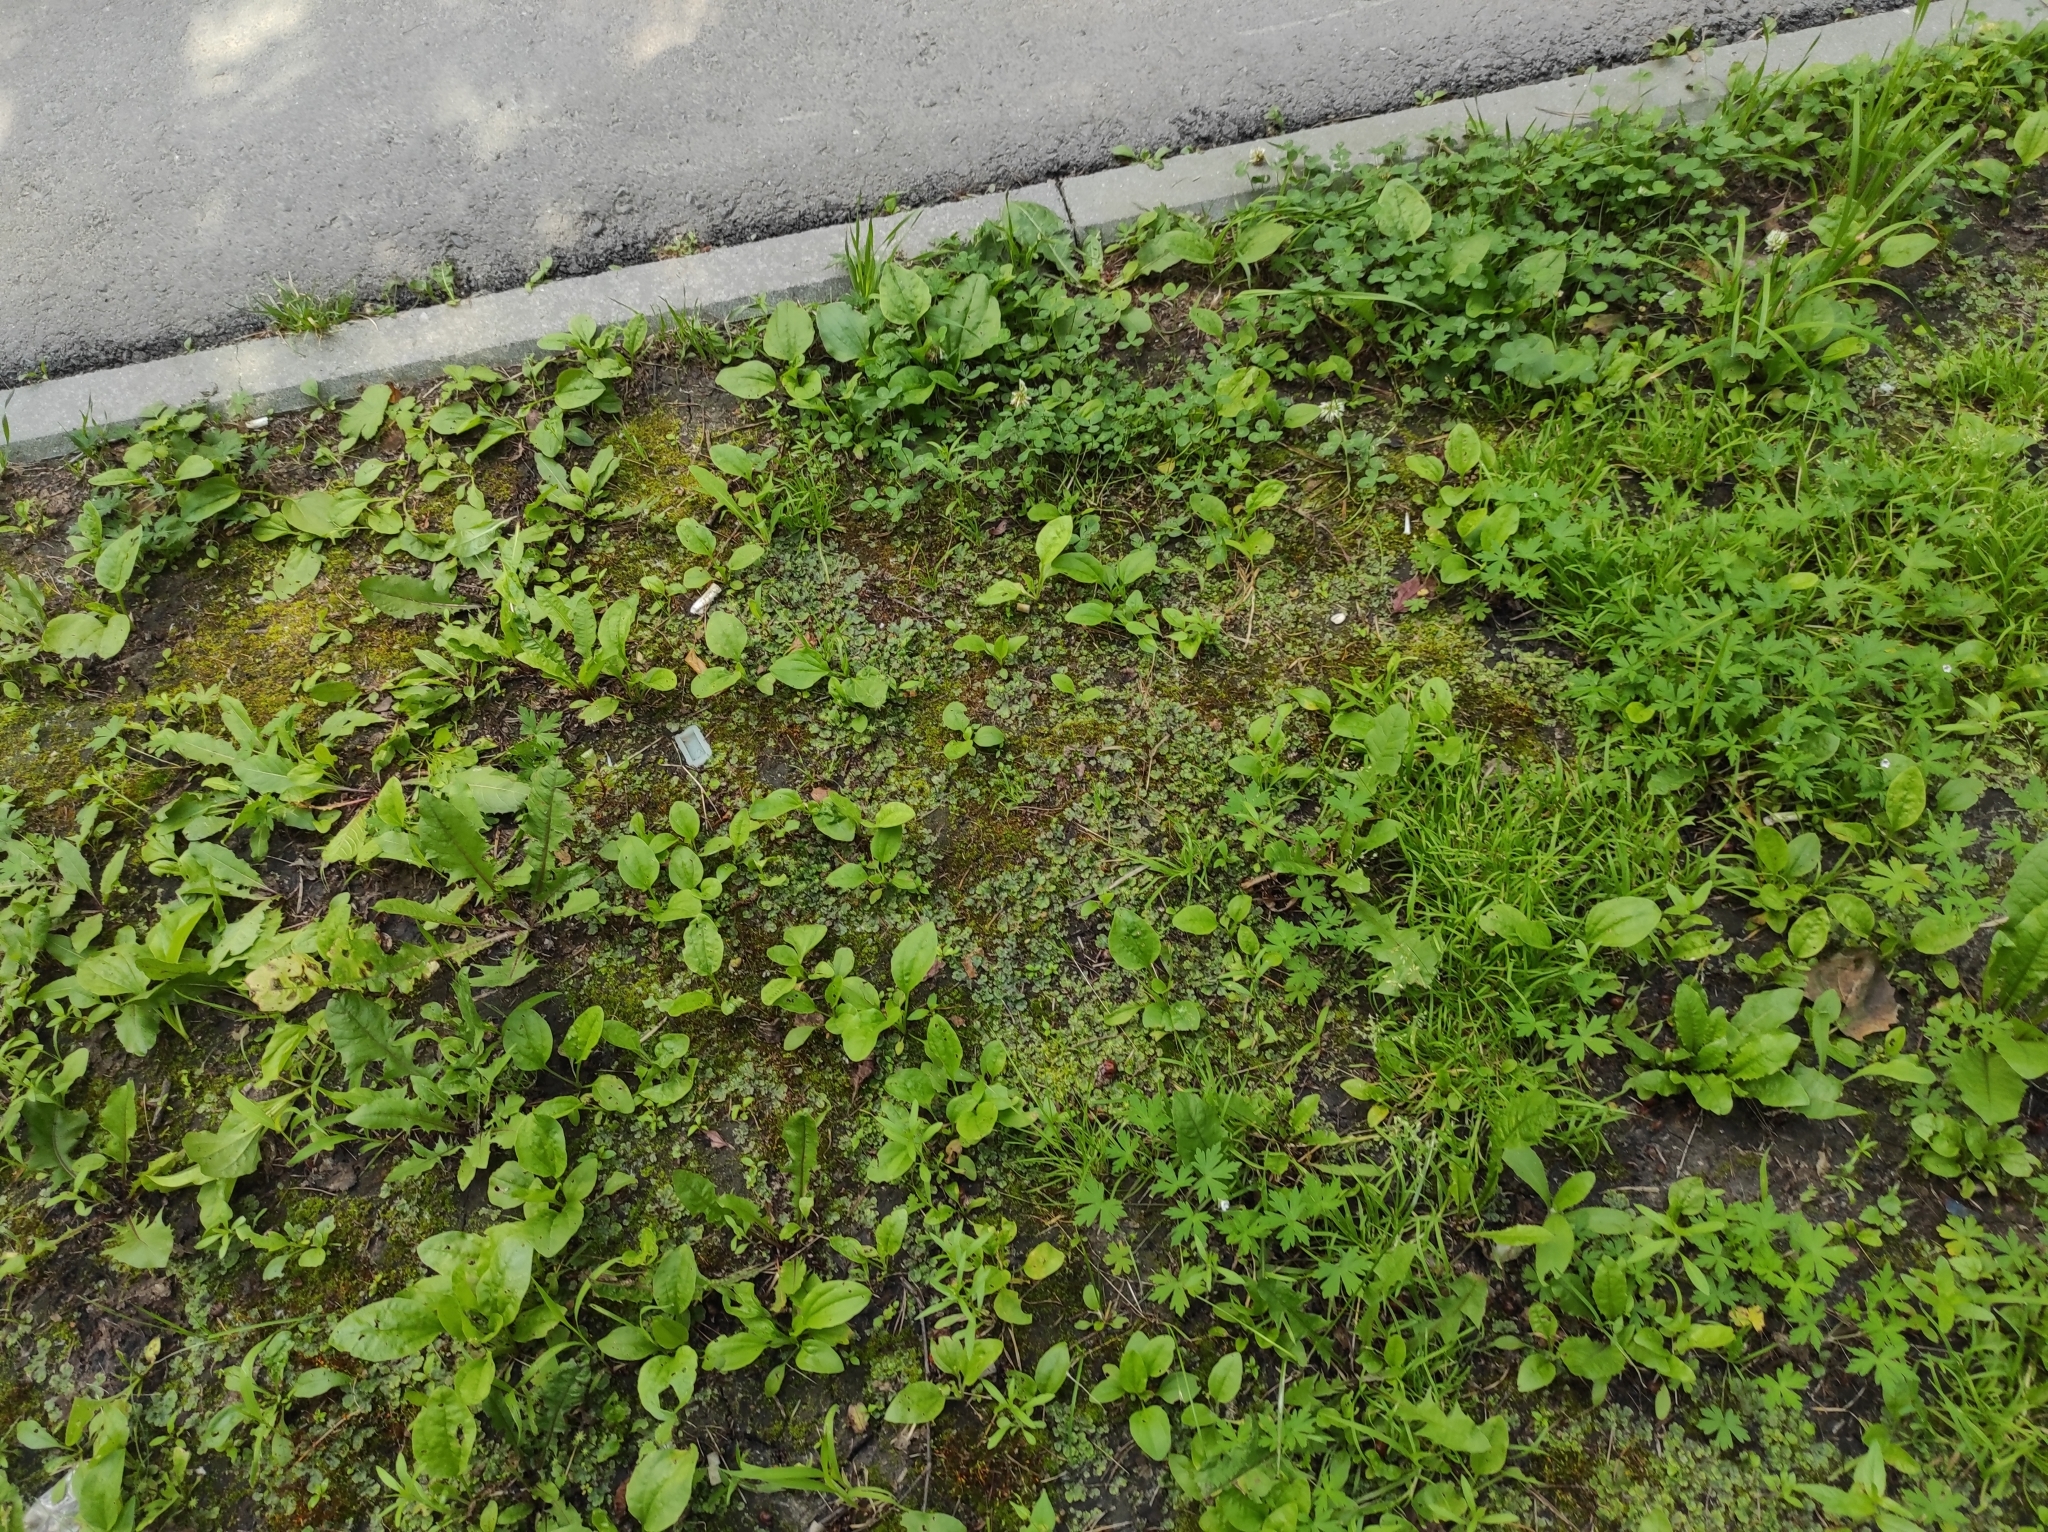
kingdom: Plantae
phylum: Marchantiophyta
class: Marchantiopsida
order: Marchantiales
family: Marchantiaceae
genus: Marchantia
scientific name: Marchantia polymorpha
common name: Common liverwort
